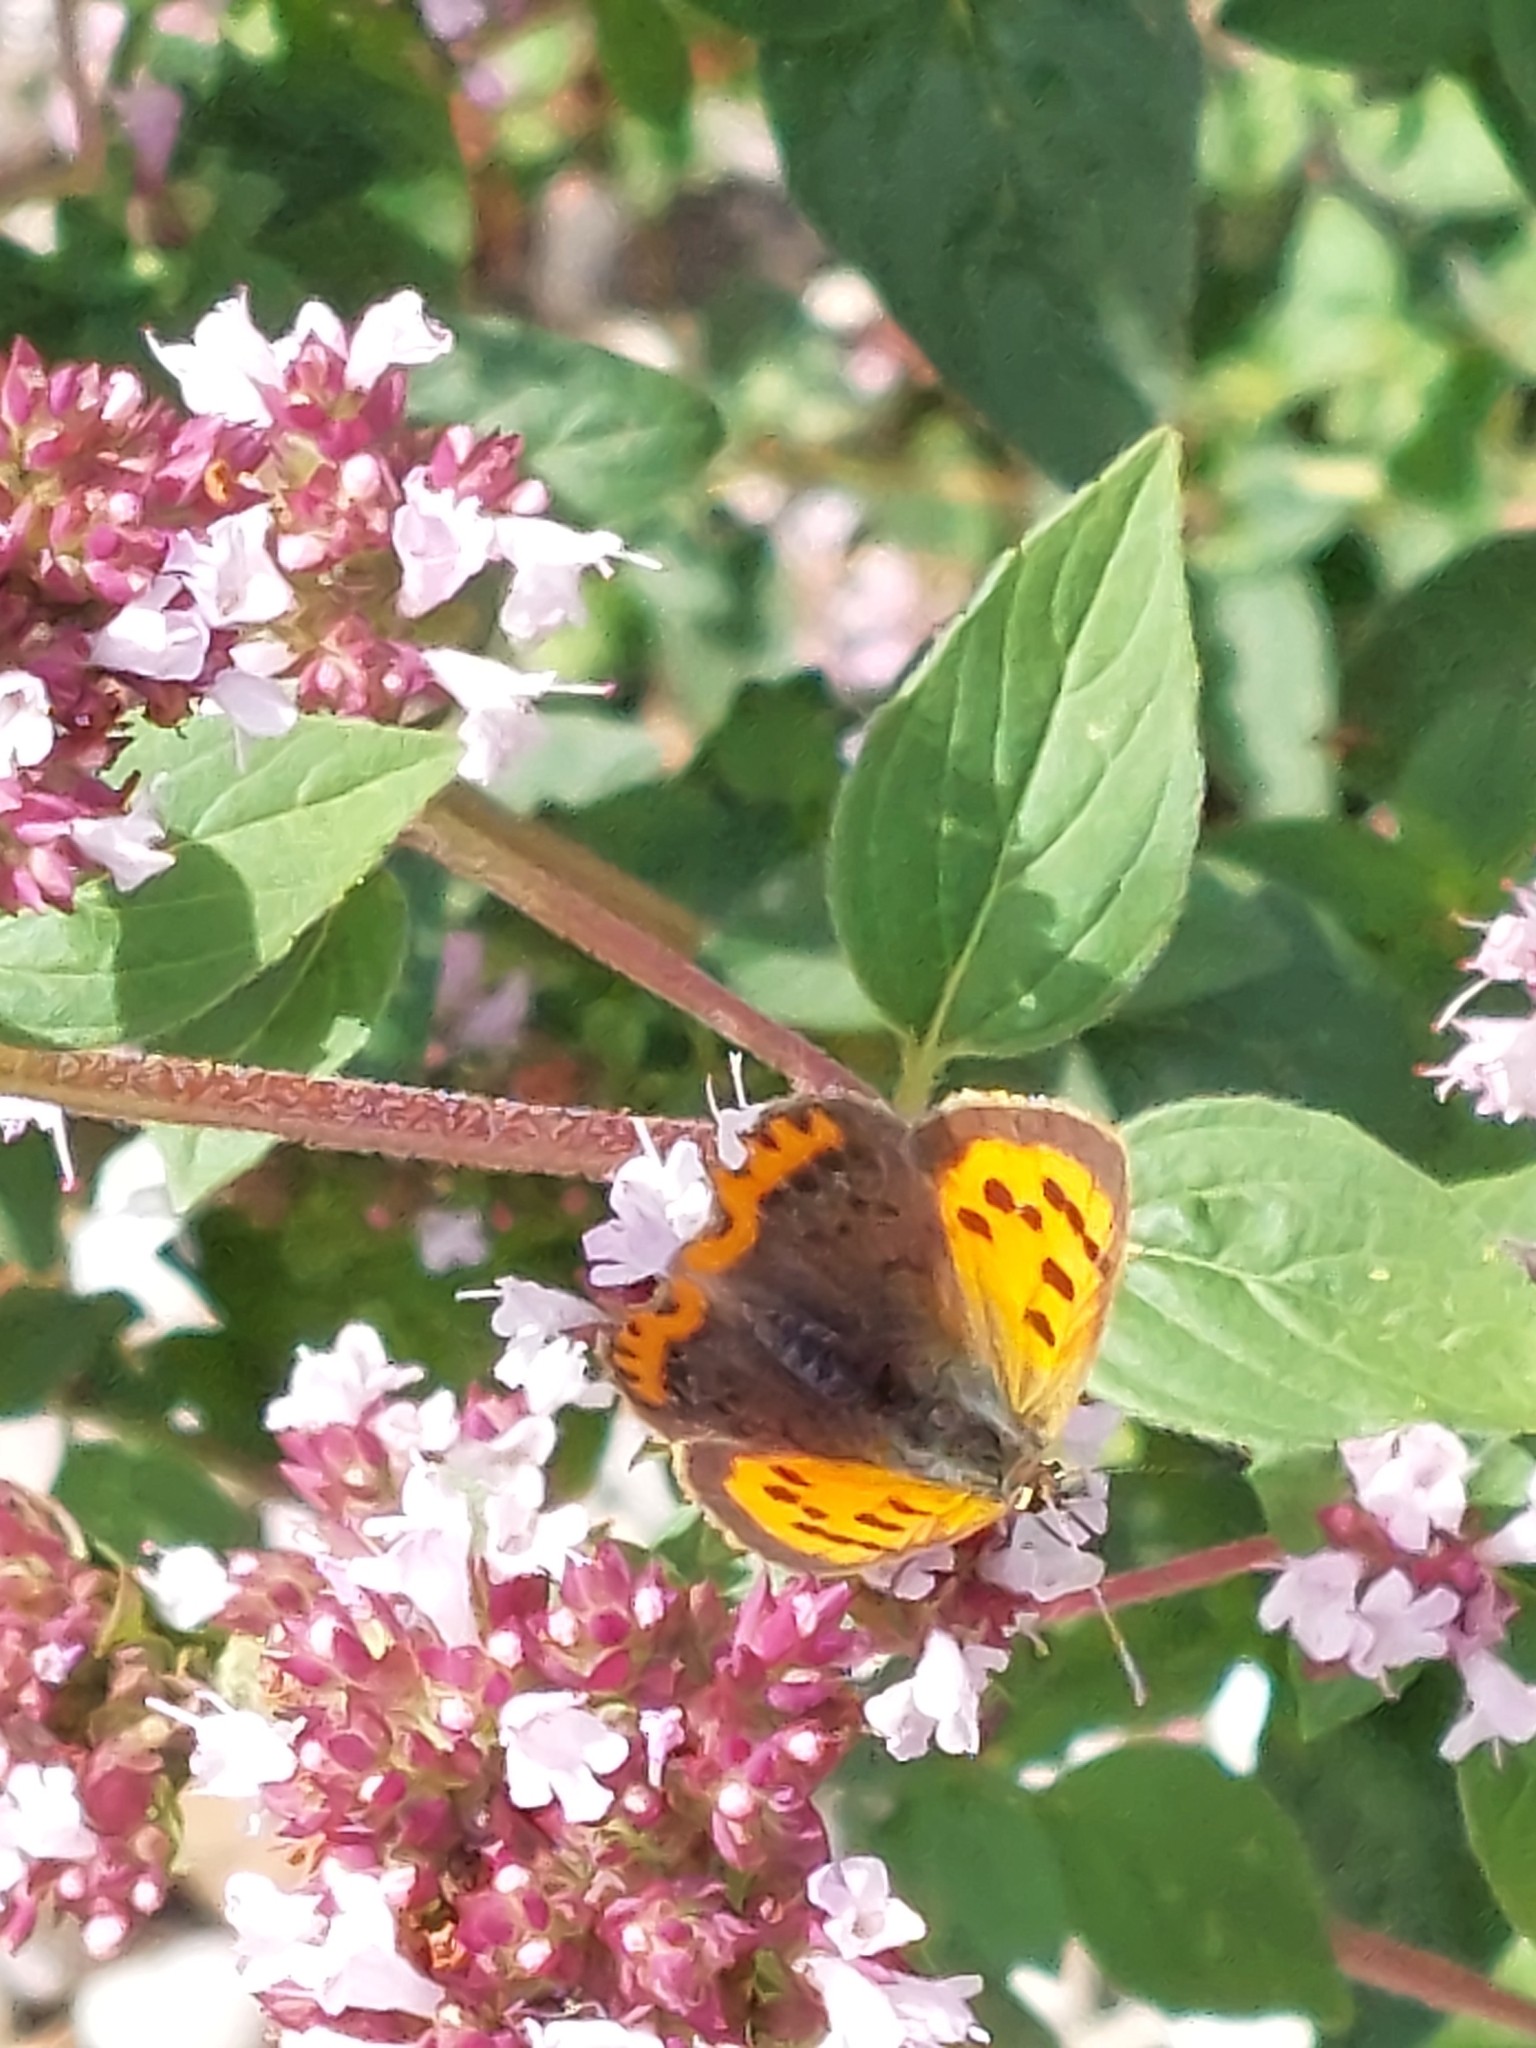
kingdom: Animalia
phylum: Arthropoda
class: Insecta
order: Lepidoptera
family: Lycaenidae
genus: Lycaena
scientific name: Lycaena phlaeas
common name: Small copper
